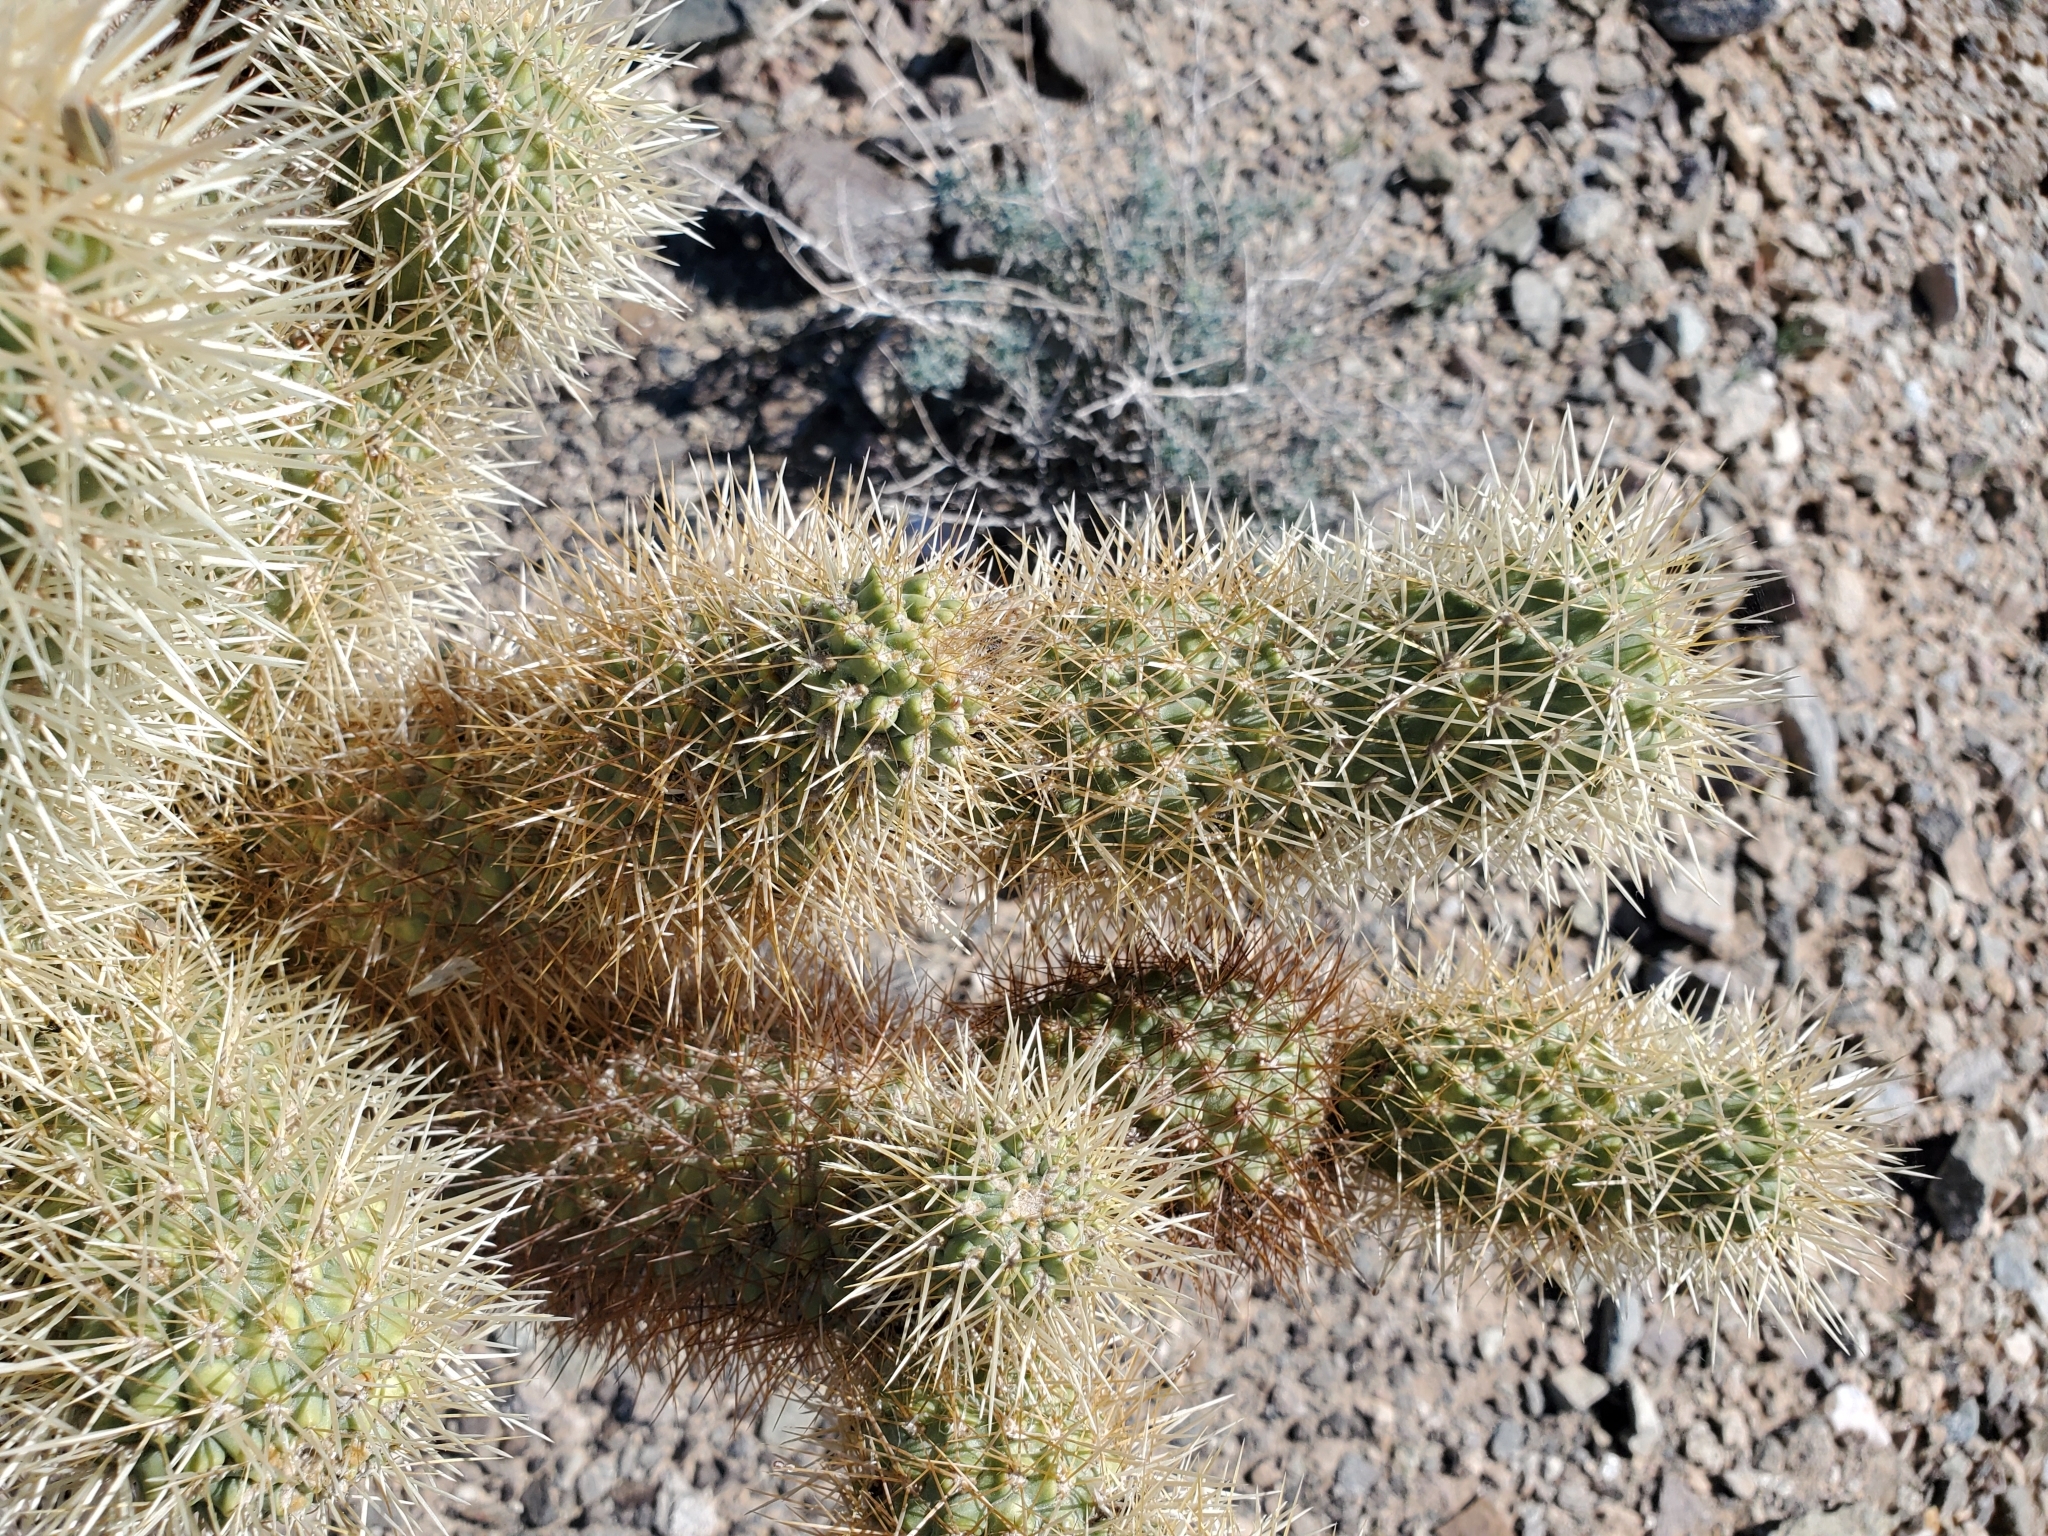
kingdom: Plantae
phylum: Tracheophyta
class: Magnoliopsida
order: Caryophyllales
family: Cactaceae
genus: Cylindropuntia
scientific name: Cylindropuntia fosbergii
